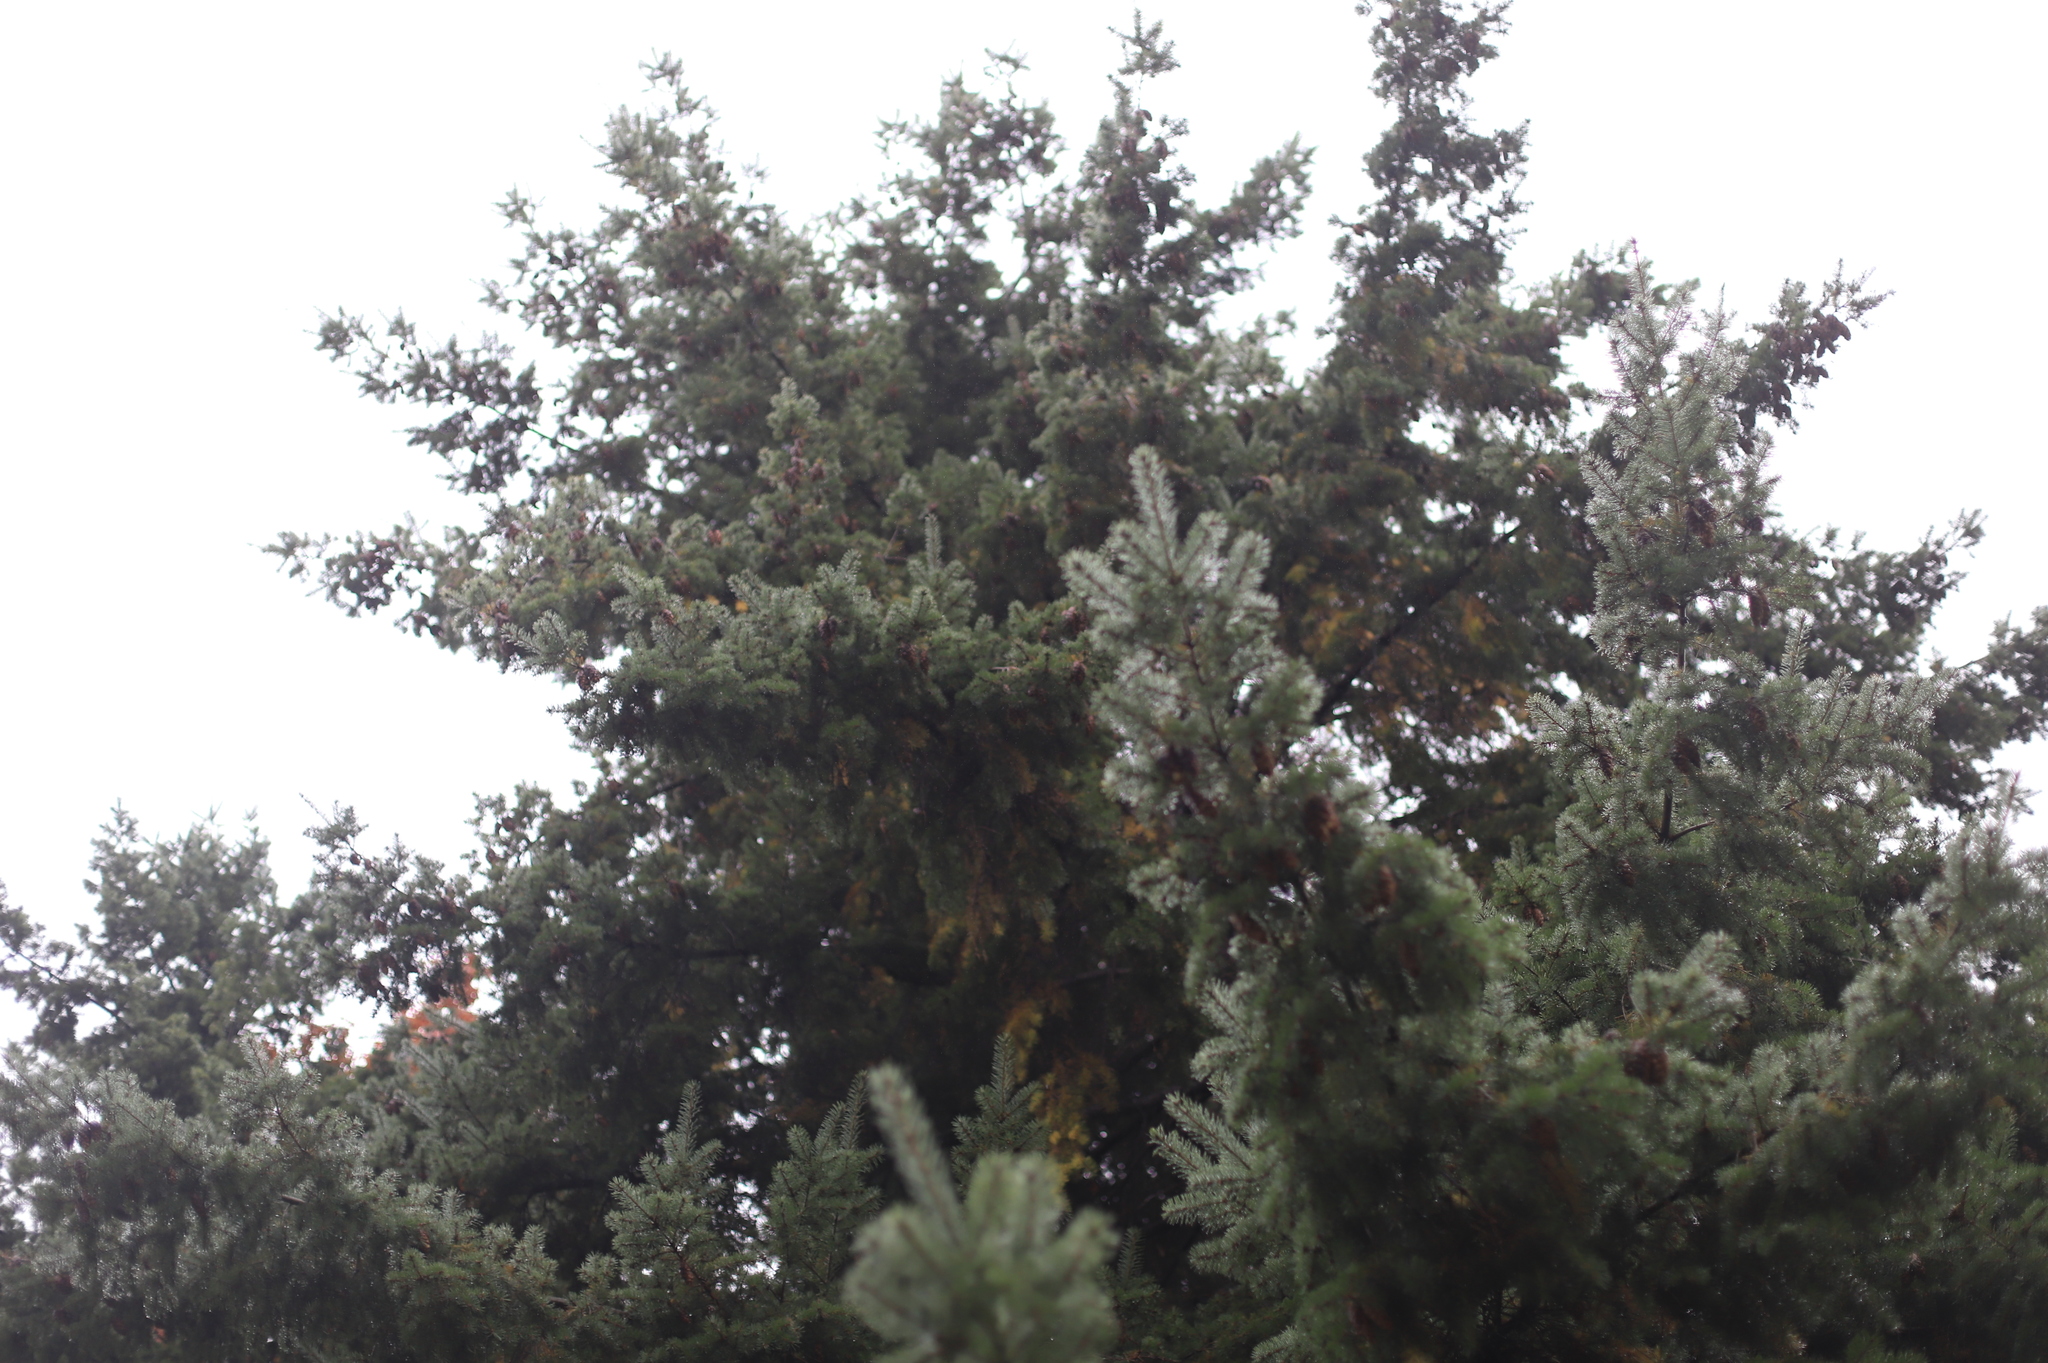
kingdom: Plantae
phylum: Tracheophyta
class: Pinopsida
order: Pinales
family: Pinaceae
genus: Pseudotsuga
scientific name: Pseudotsuga menziesii
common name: Douglas fir
